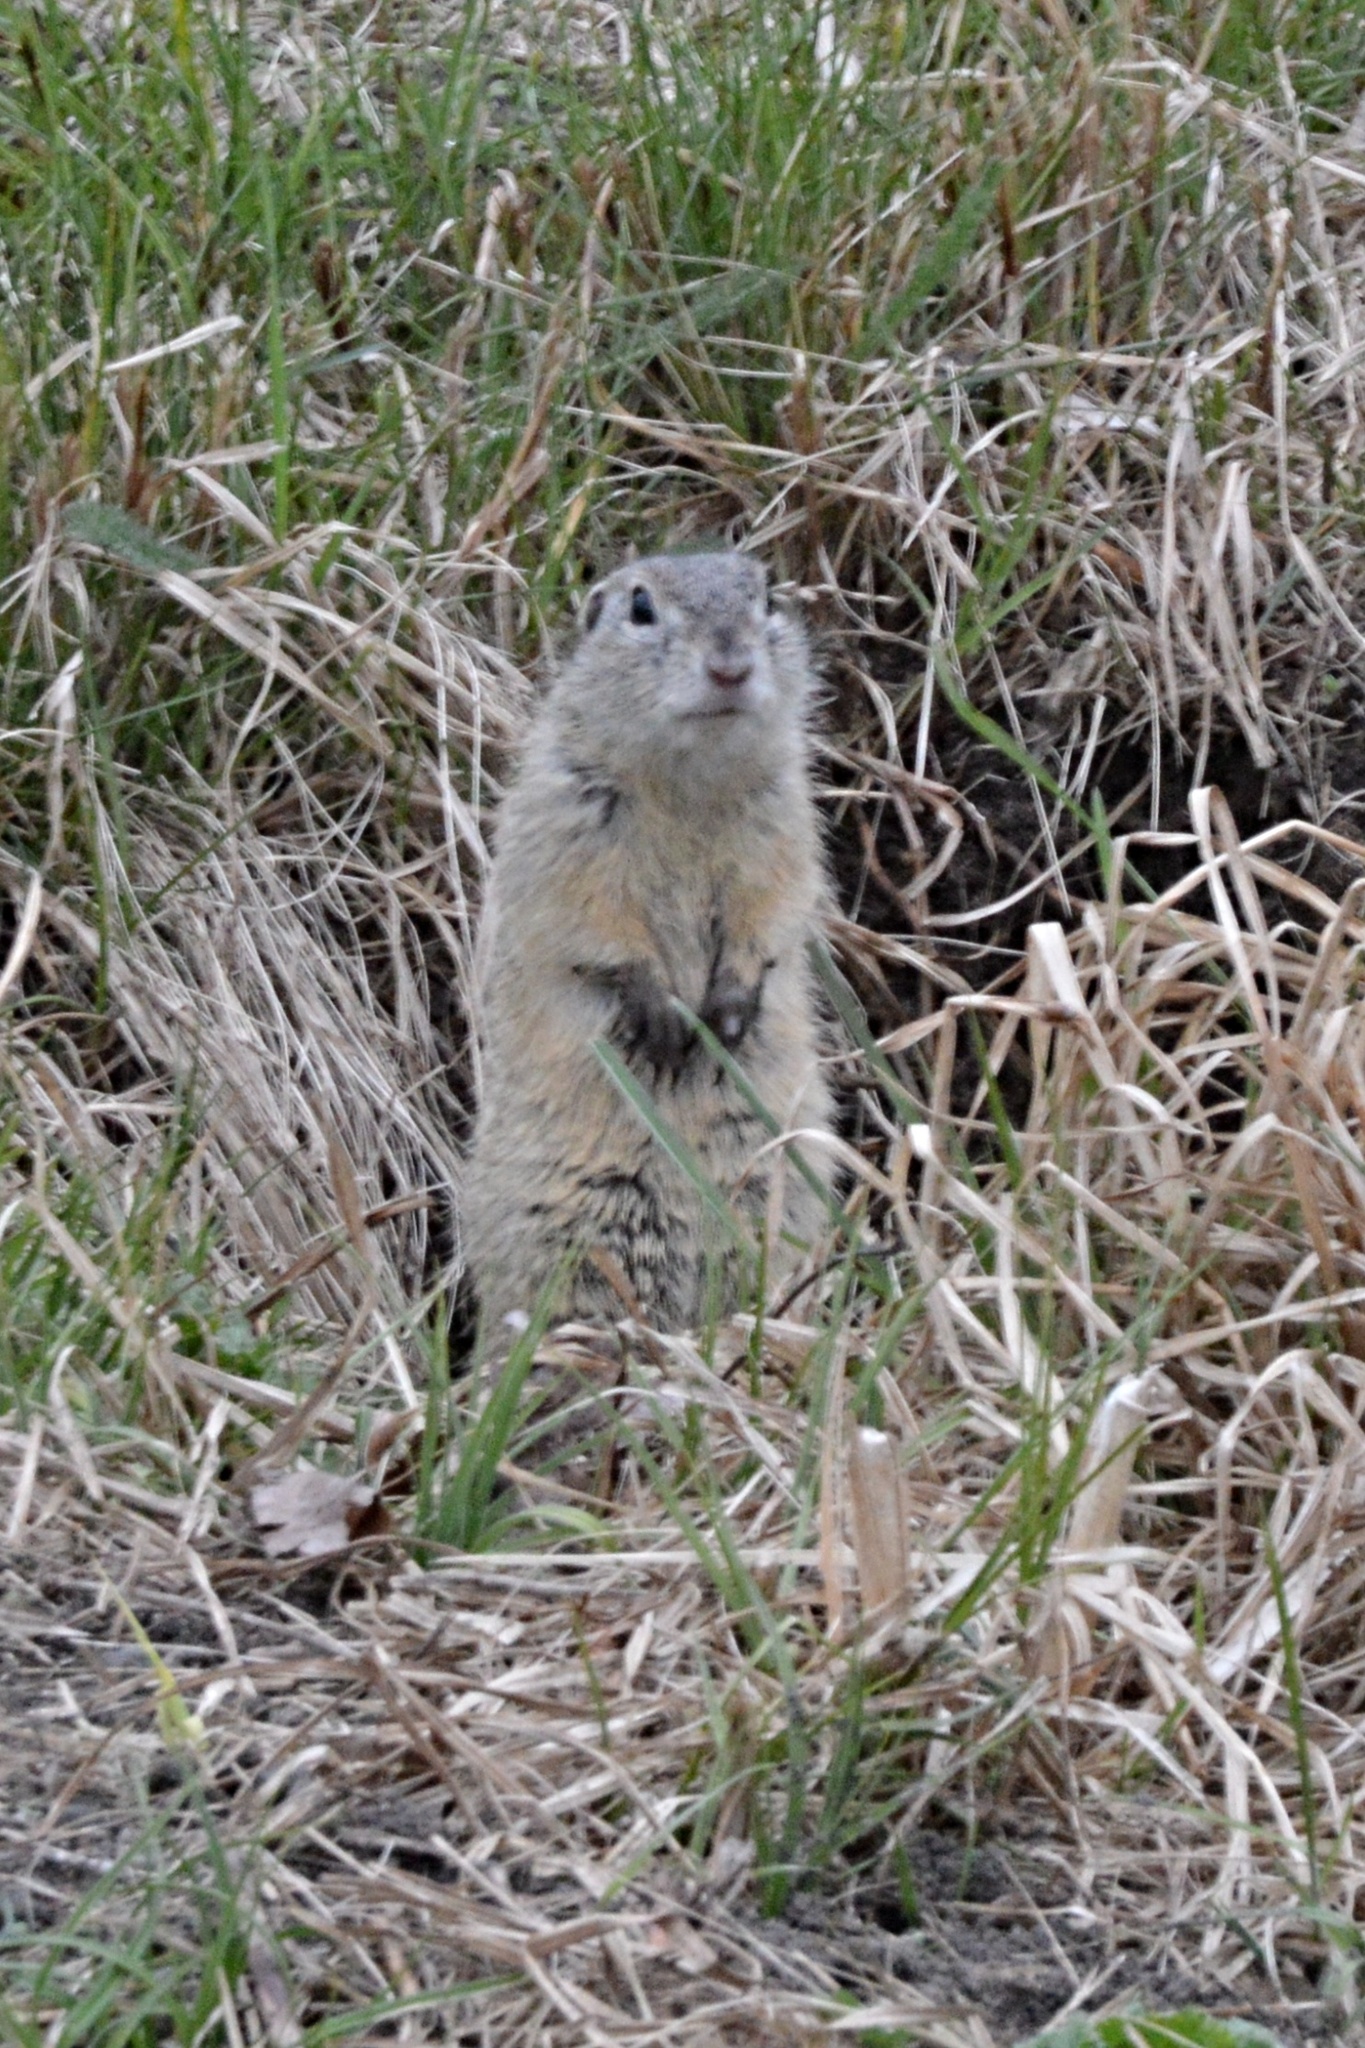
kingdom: Animalia
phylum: Chordata
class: Mammalia
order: Rodentia
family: Sciuridae
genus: Spermophilus
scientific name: Spermophilus citellus
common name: European ground squirrel
